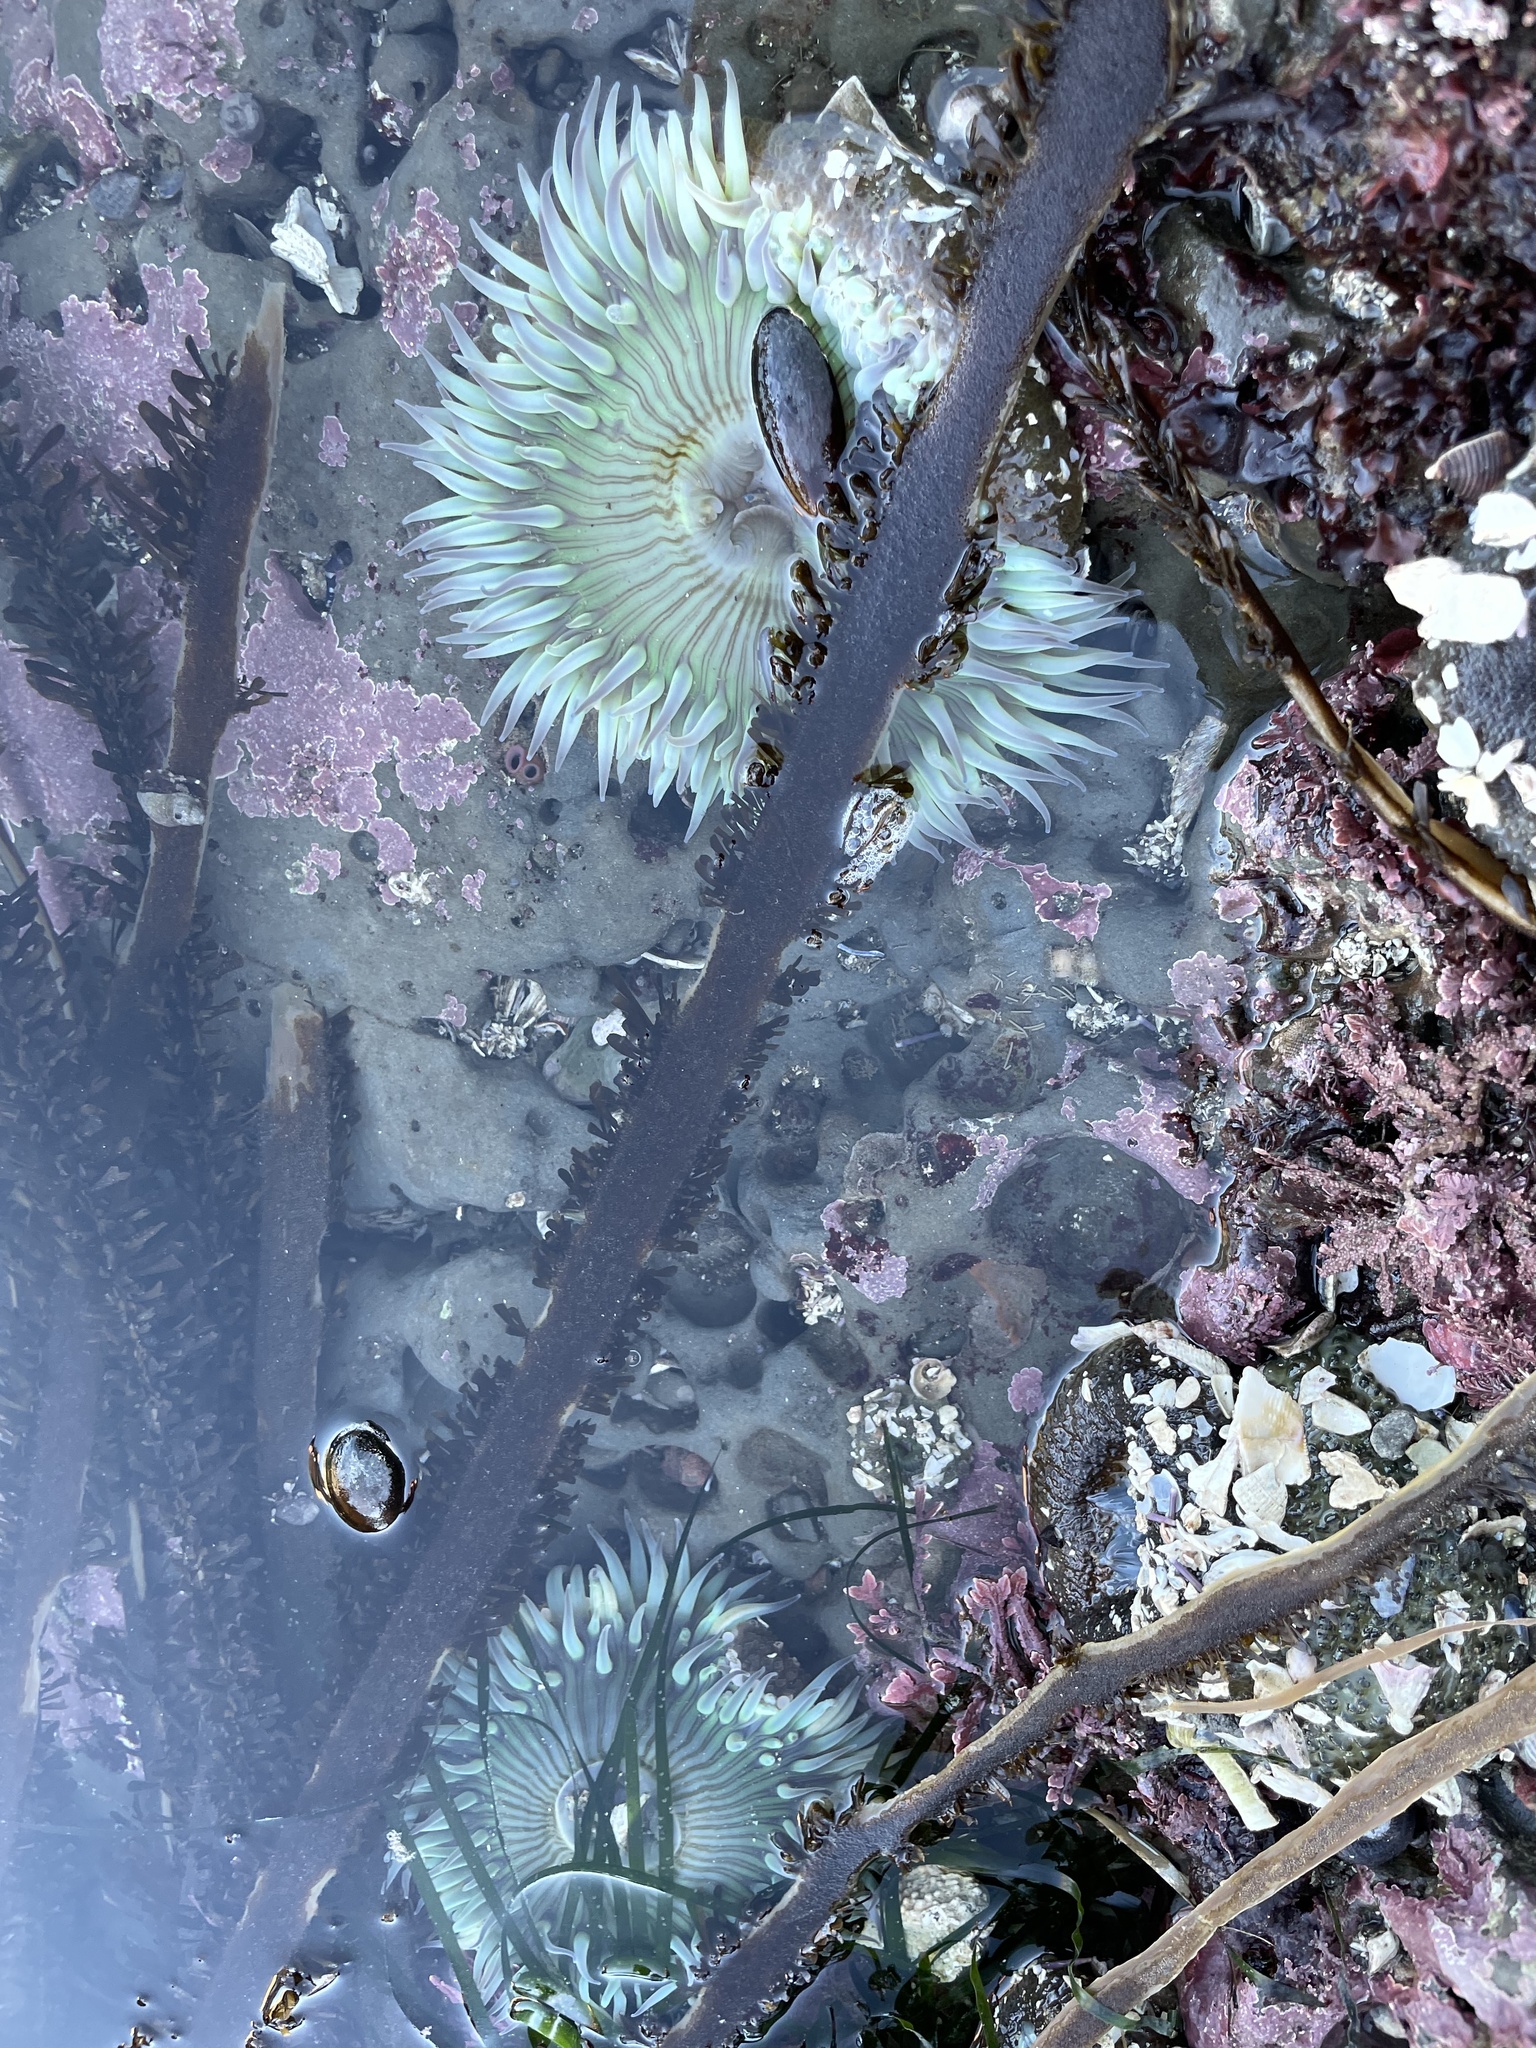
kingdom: Animalia
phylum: Cnidaria
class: Anthozoa
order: Actiniaria
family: Actiniidae
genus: Anthopleura
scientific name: Anthopleura sola
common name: Sun anemone
